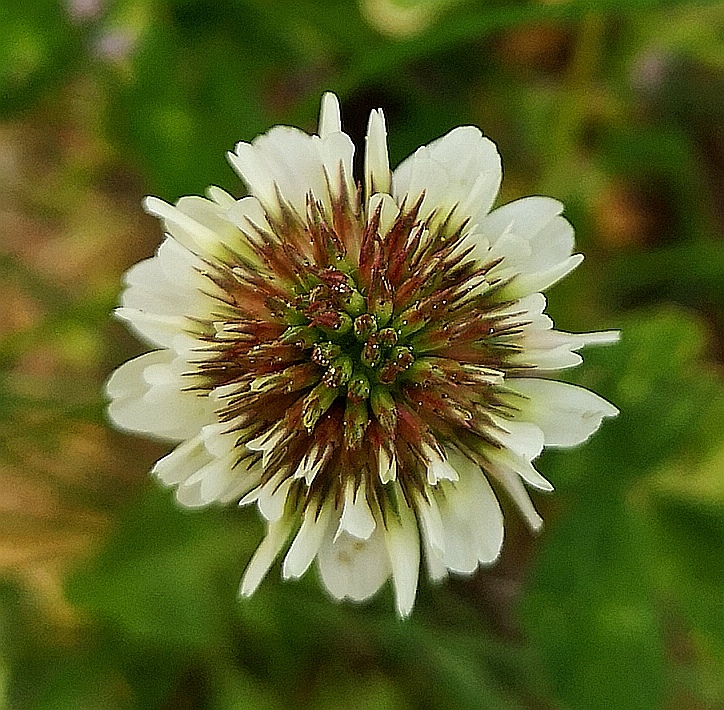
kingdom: Plantae
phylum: Tracheophyta
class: Magnoliopsida
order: Fabales
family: Fabaceae
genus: Trifolium
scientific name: Trifolium repens
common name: White clover
